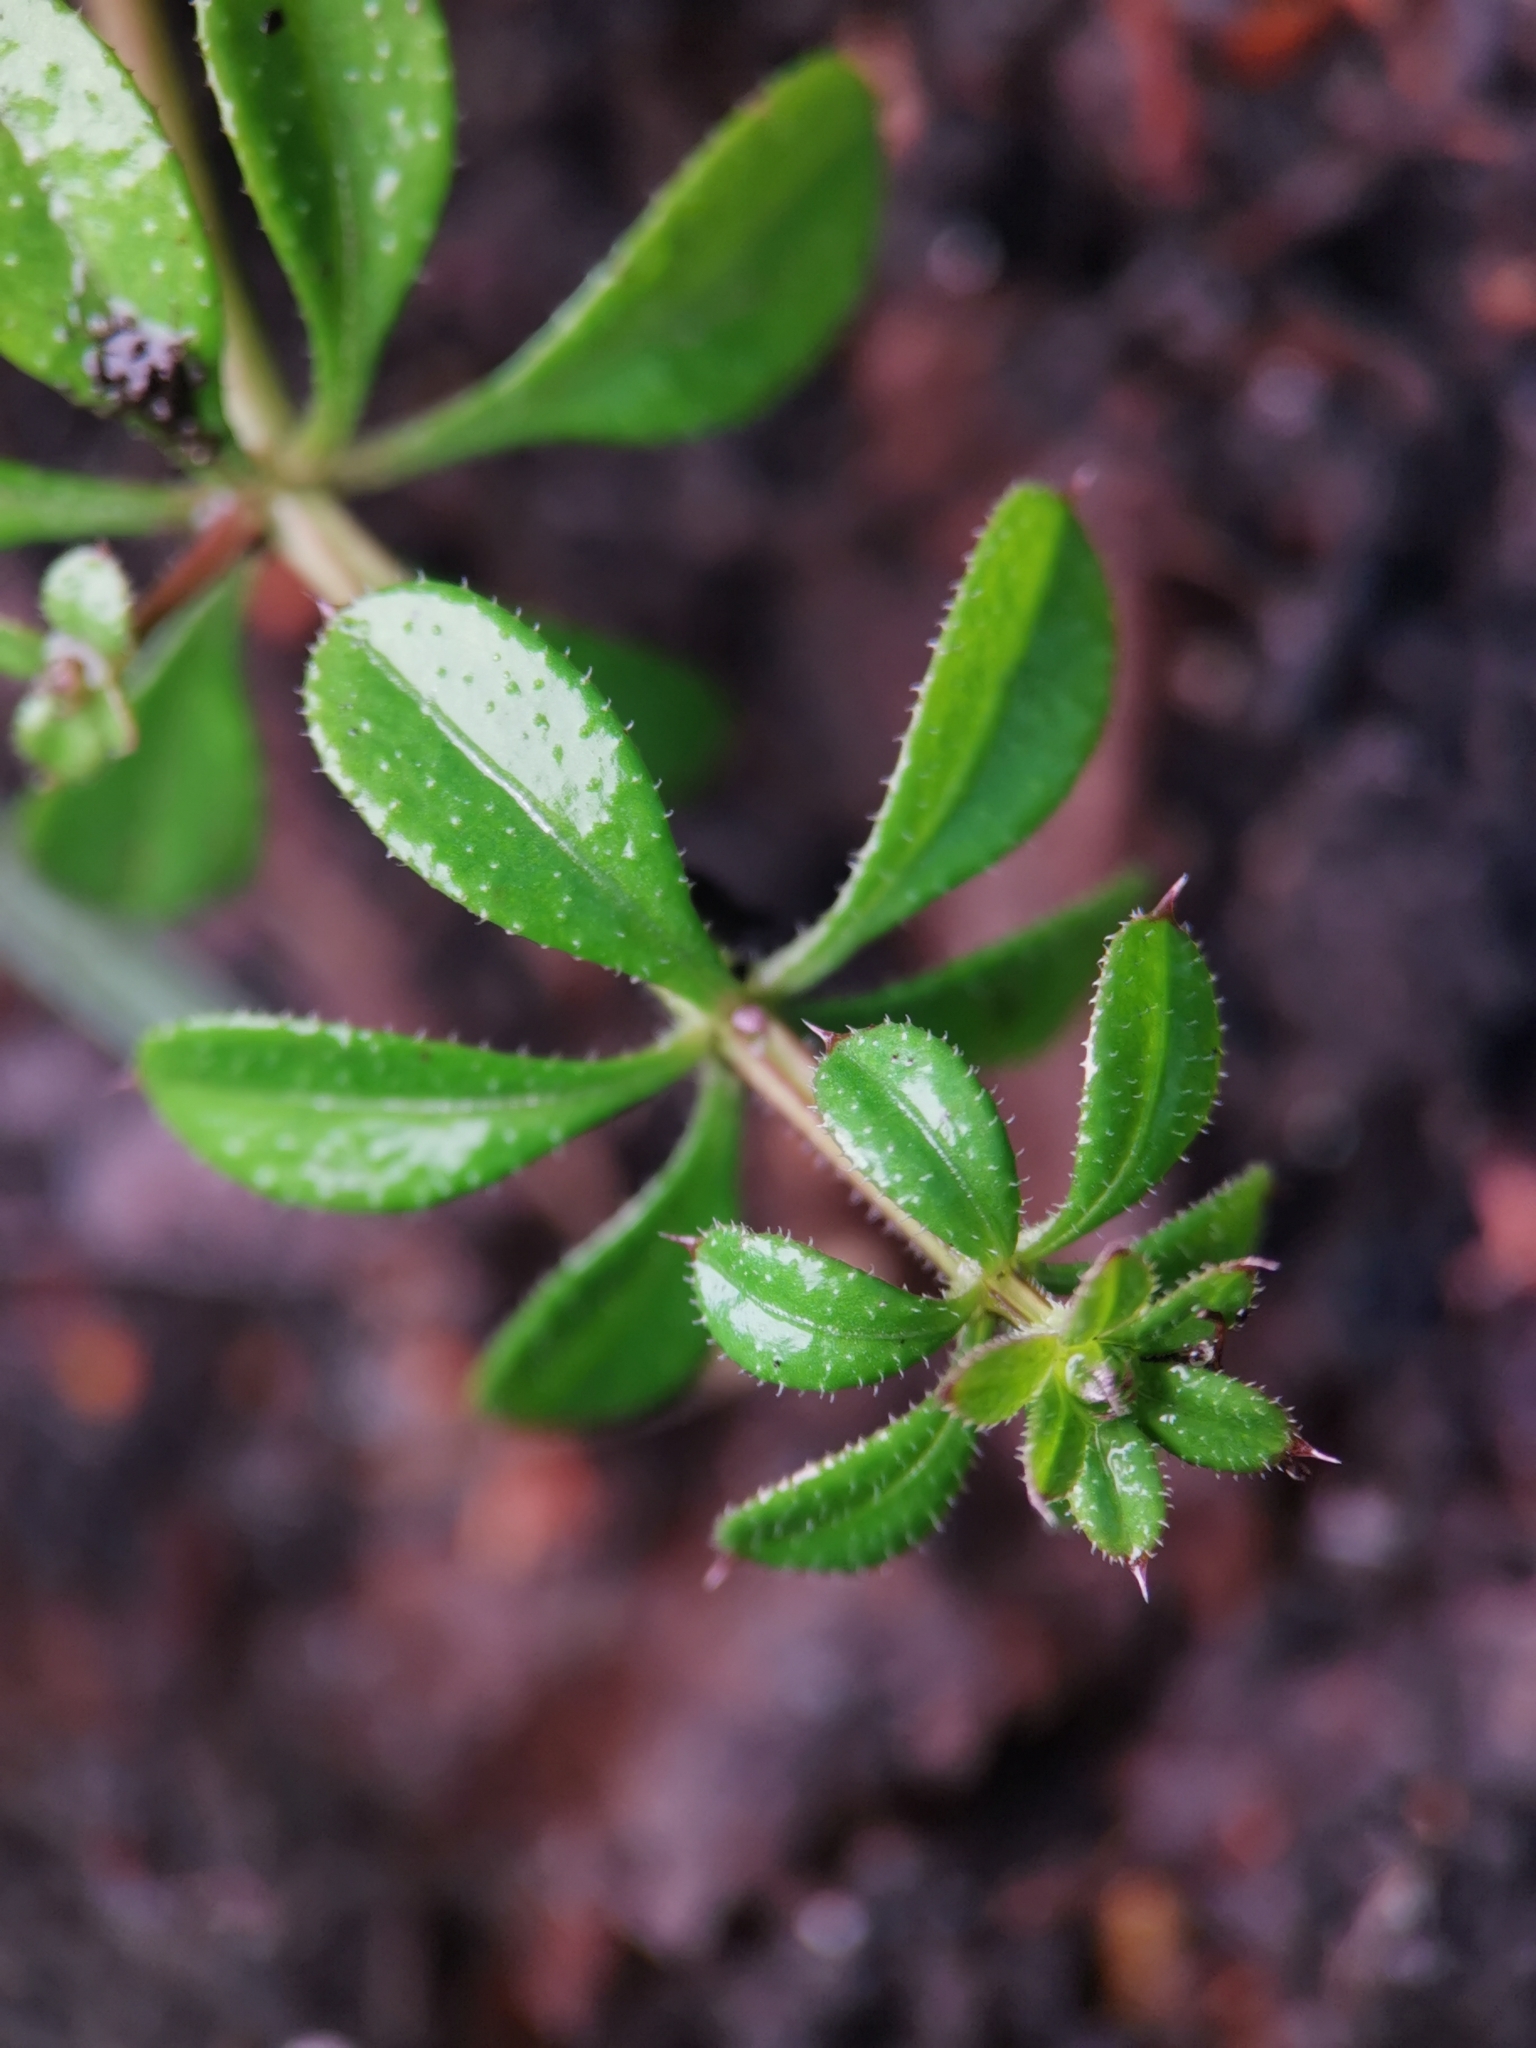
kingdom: Plantae
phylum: Tracheophyta
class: Magnoliopsida
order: Gentianales
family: Rubiaceae
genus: Galium
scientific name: Galium aparine
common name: Cleavers
